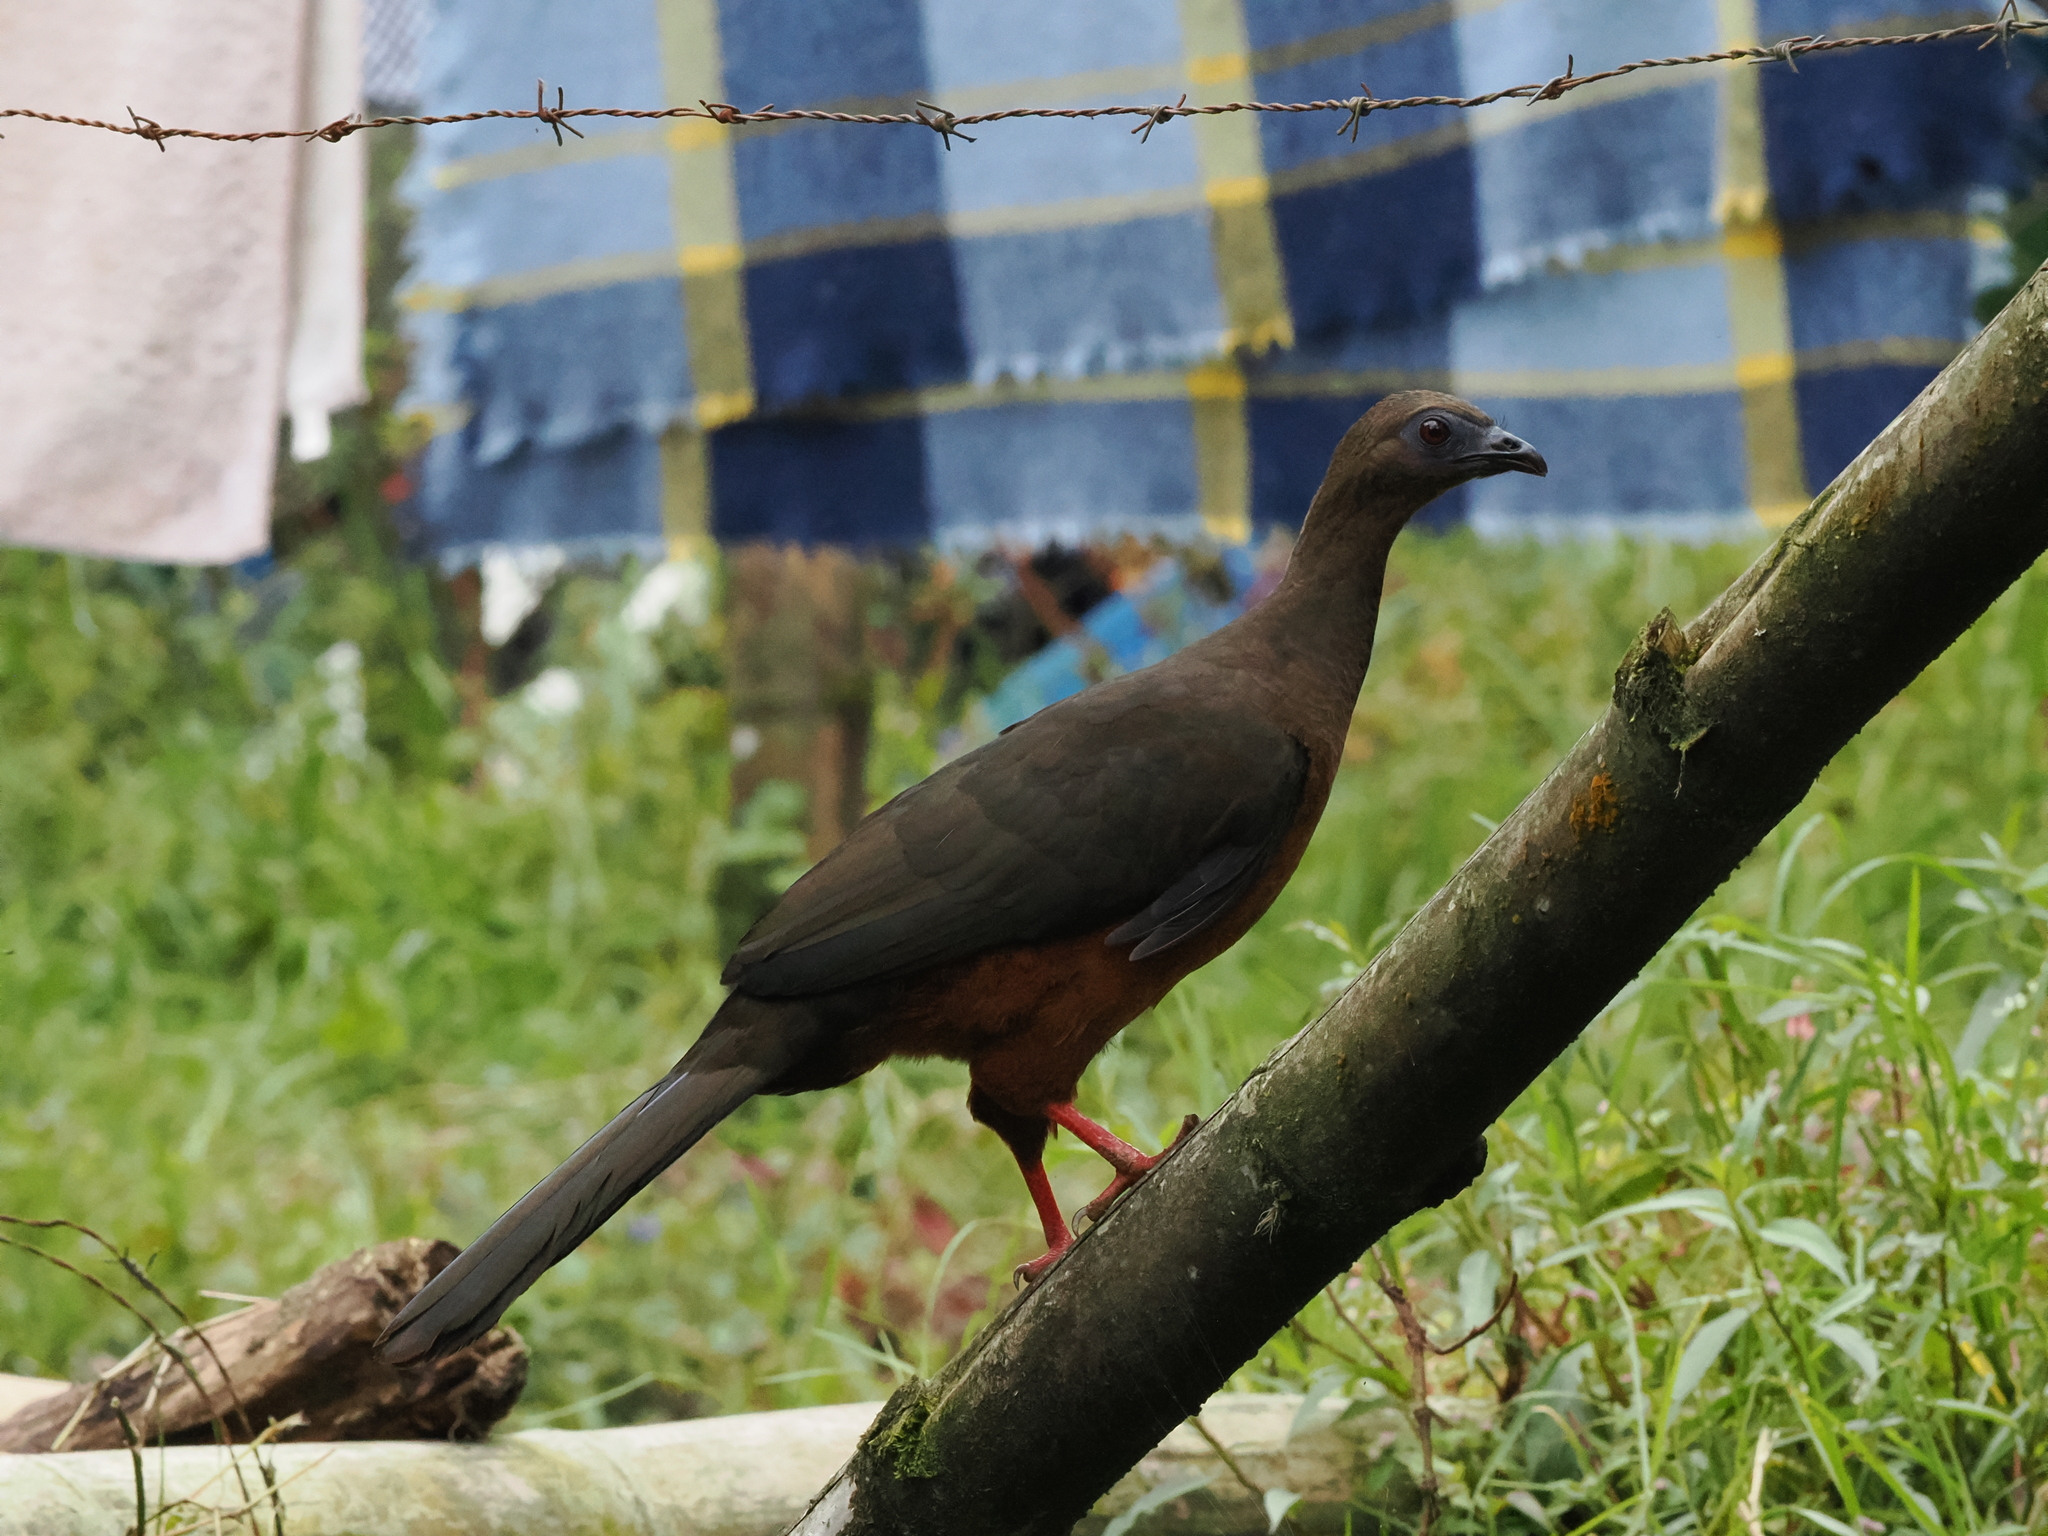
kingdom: Animalia
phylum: Chordata
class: Aves
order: Galliformes
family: Cracidae
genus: Chamaepetes
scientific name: Chamaepetes goudotii
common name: Sickle-winged guan
